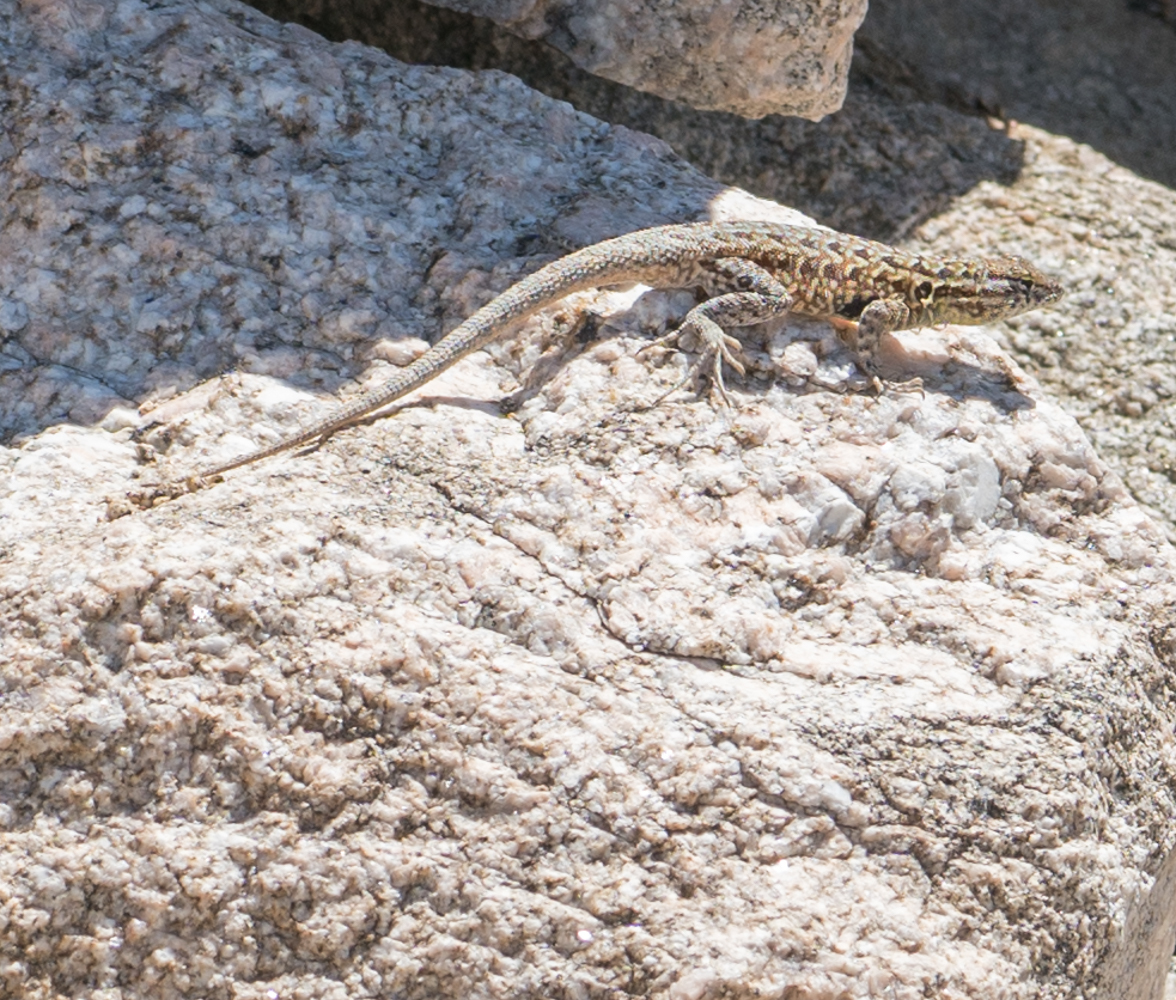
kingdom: Animalia
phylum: Chordata
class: Squamata
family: Phrynosomatidae
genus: Uta
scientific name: Uta stansburiana
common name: Side-blotched lizard
